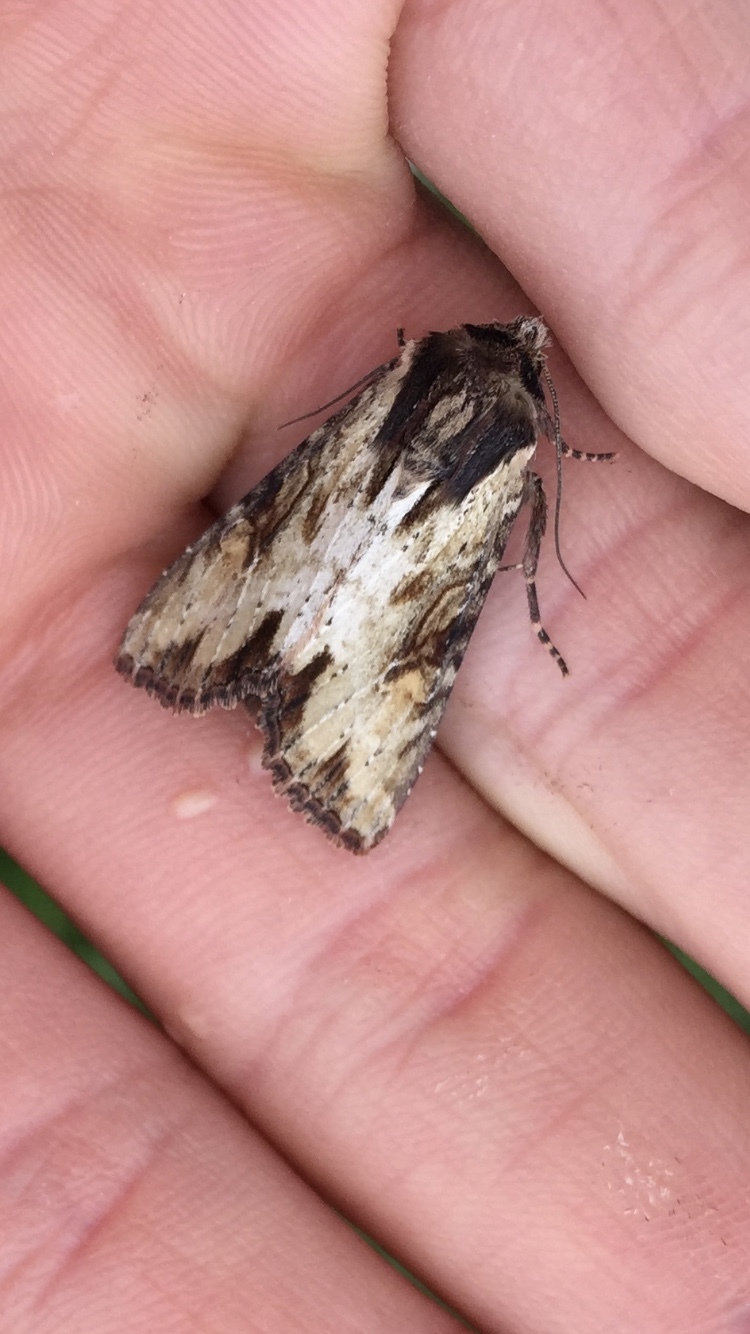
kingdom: Animalia
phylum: Arthropoda
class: Insecta
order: Lepidoptera
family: Noctuidae
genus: Apamea
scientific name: Apamea crenata
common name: Clouded-bordered brindle
